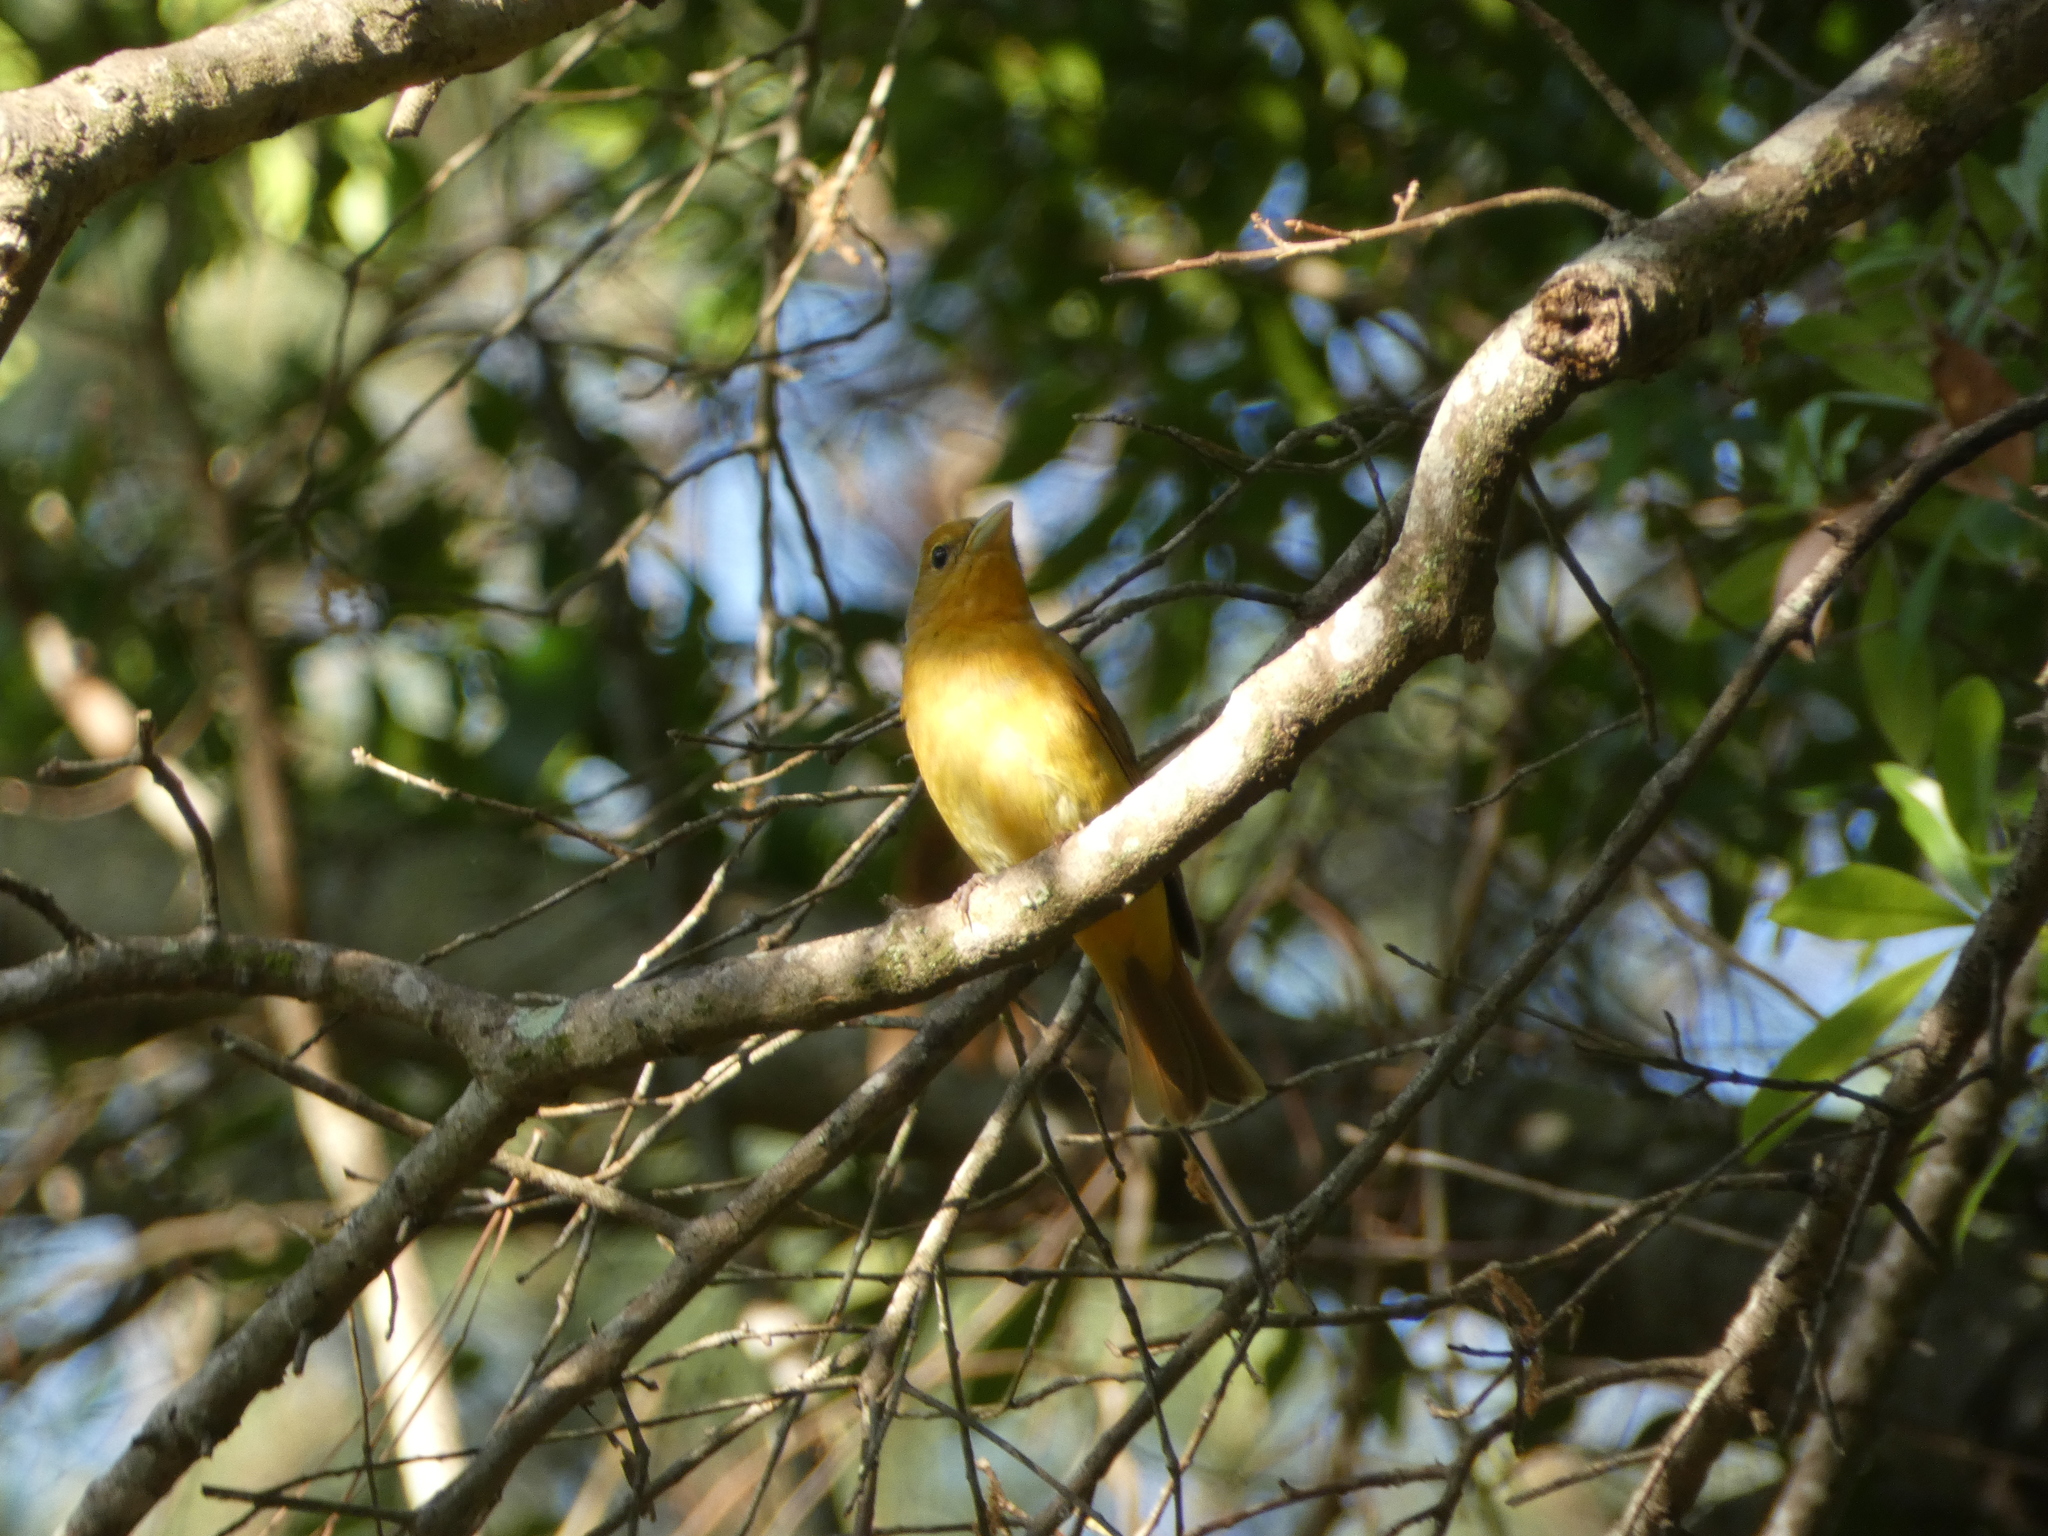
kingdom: Animalia
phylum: Chordata
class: Aves
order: Passeriformes
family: Cardinalidae
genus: Piranga
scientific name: Piranga rubra
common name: Summer tanager
